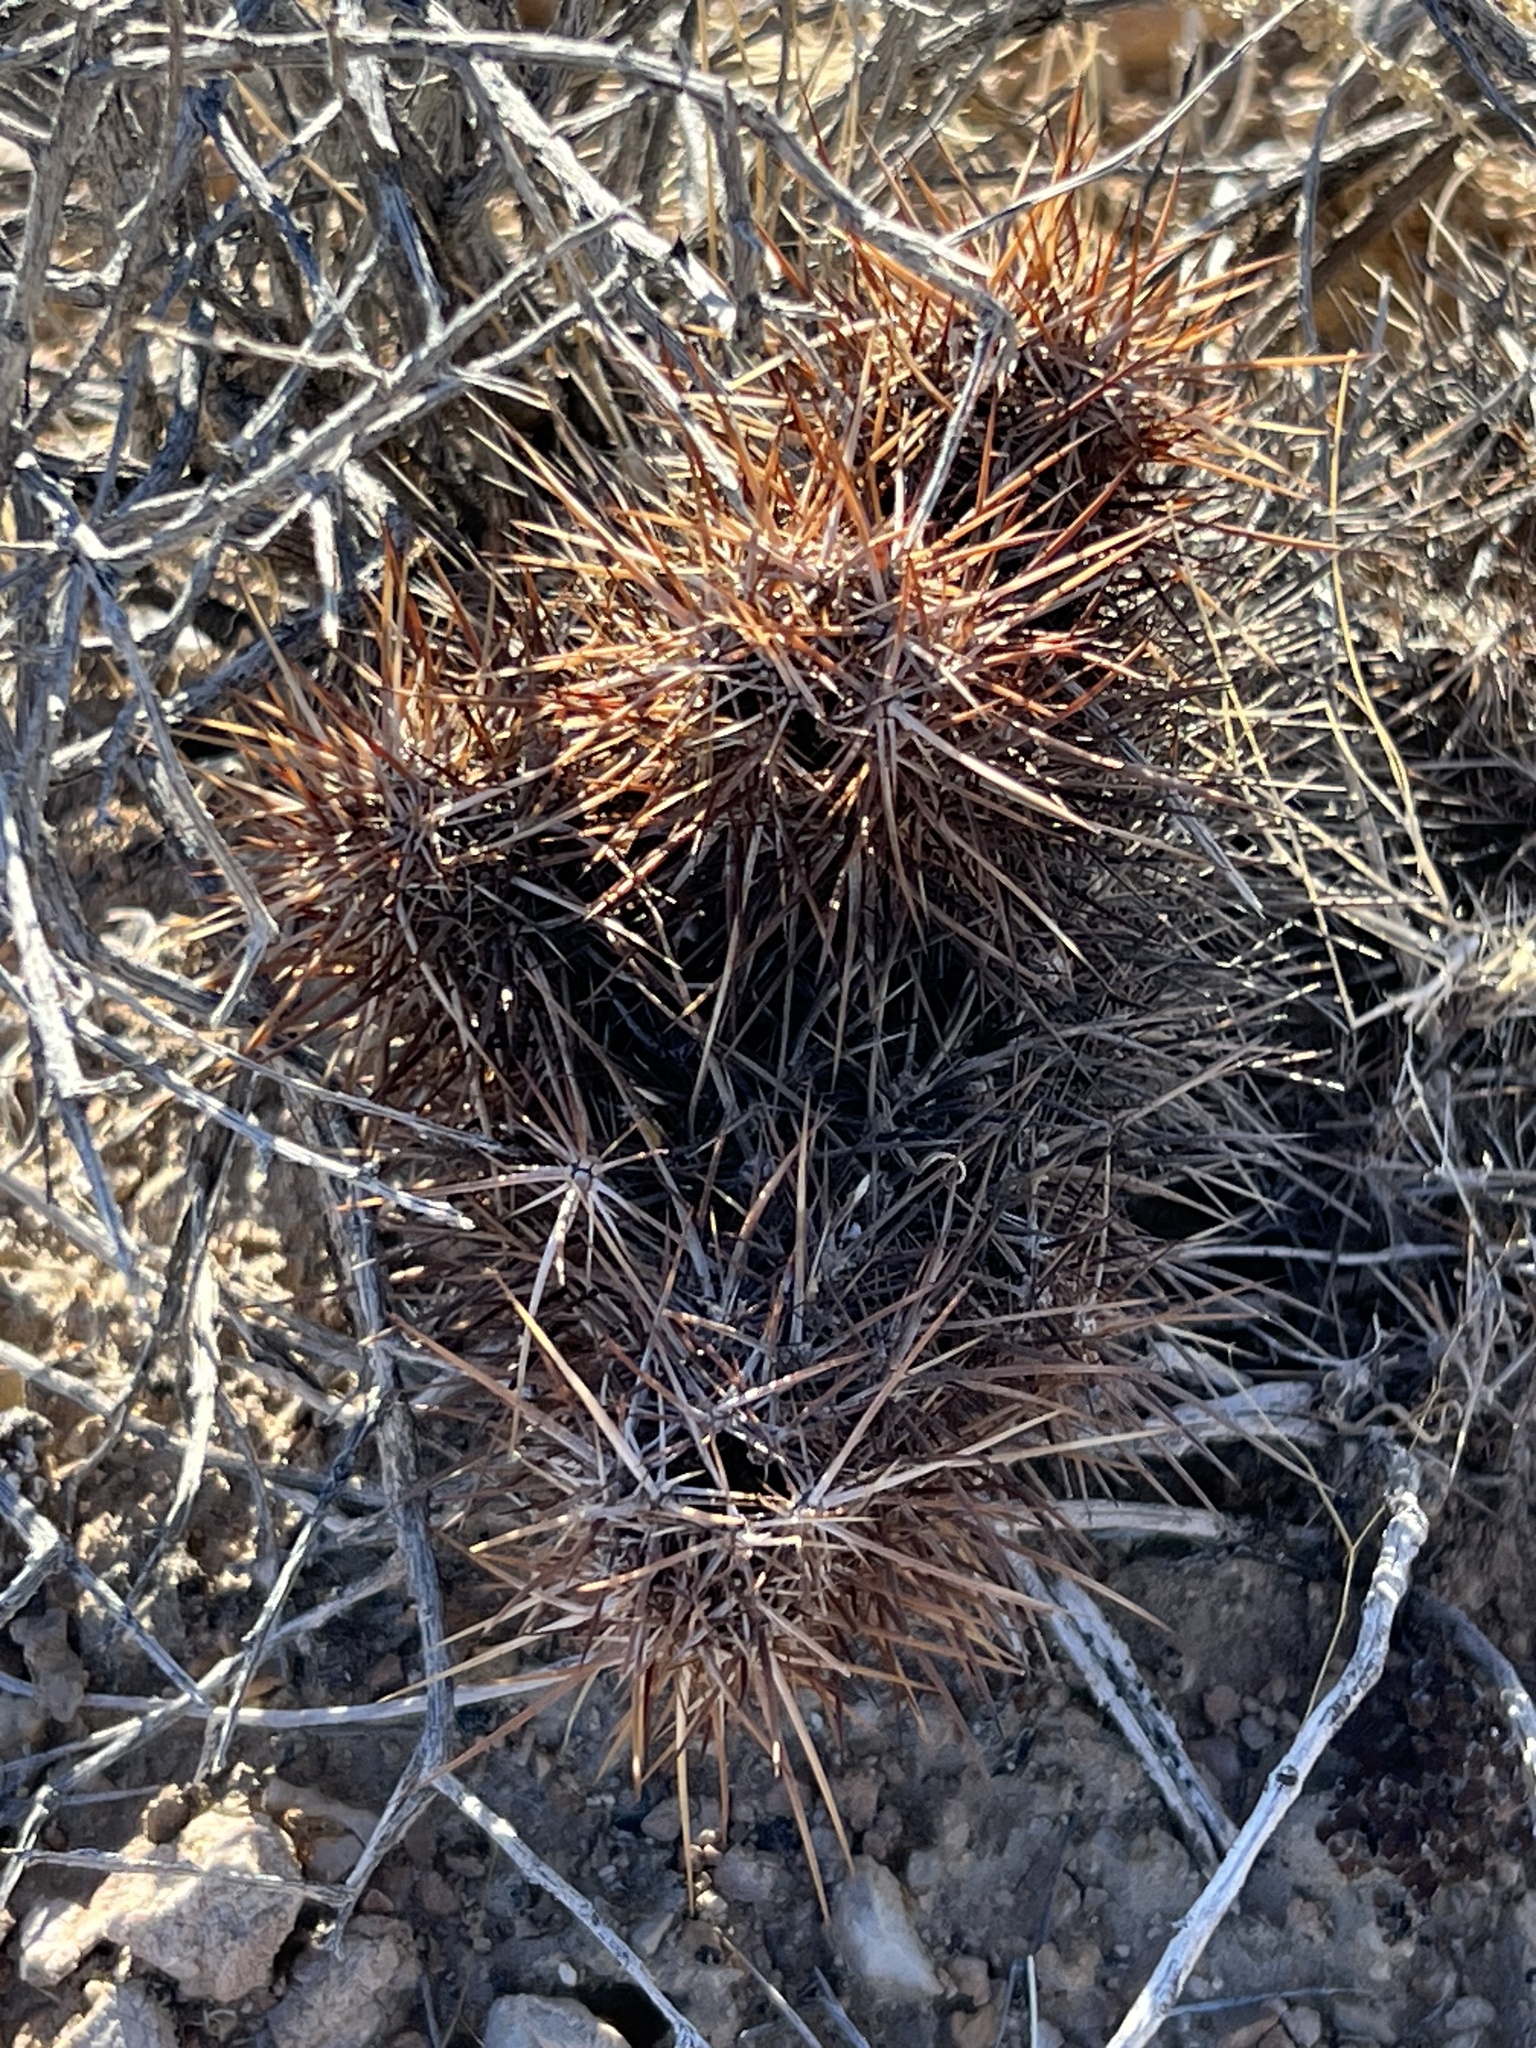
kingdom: Plantae
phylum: Tracheophyta
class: Magnoliopsida
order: Caryophyllales
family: Cactaceae
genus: Echinocereus
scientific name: Echinocereus engelmannii
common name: Engelmann's hedgehog cactus
